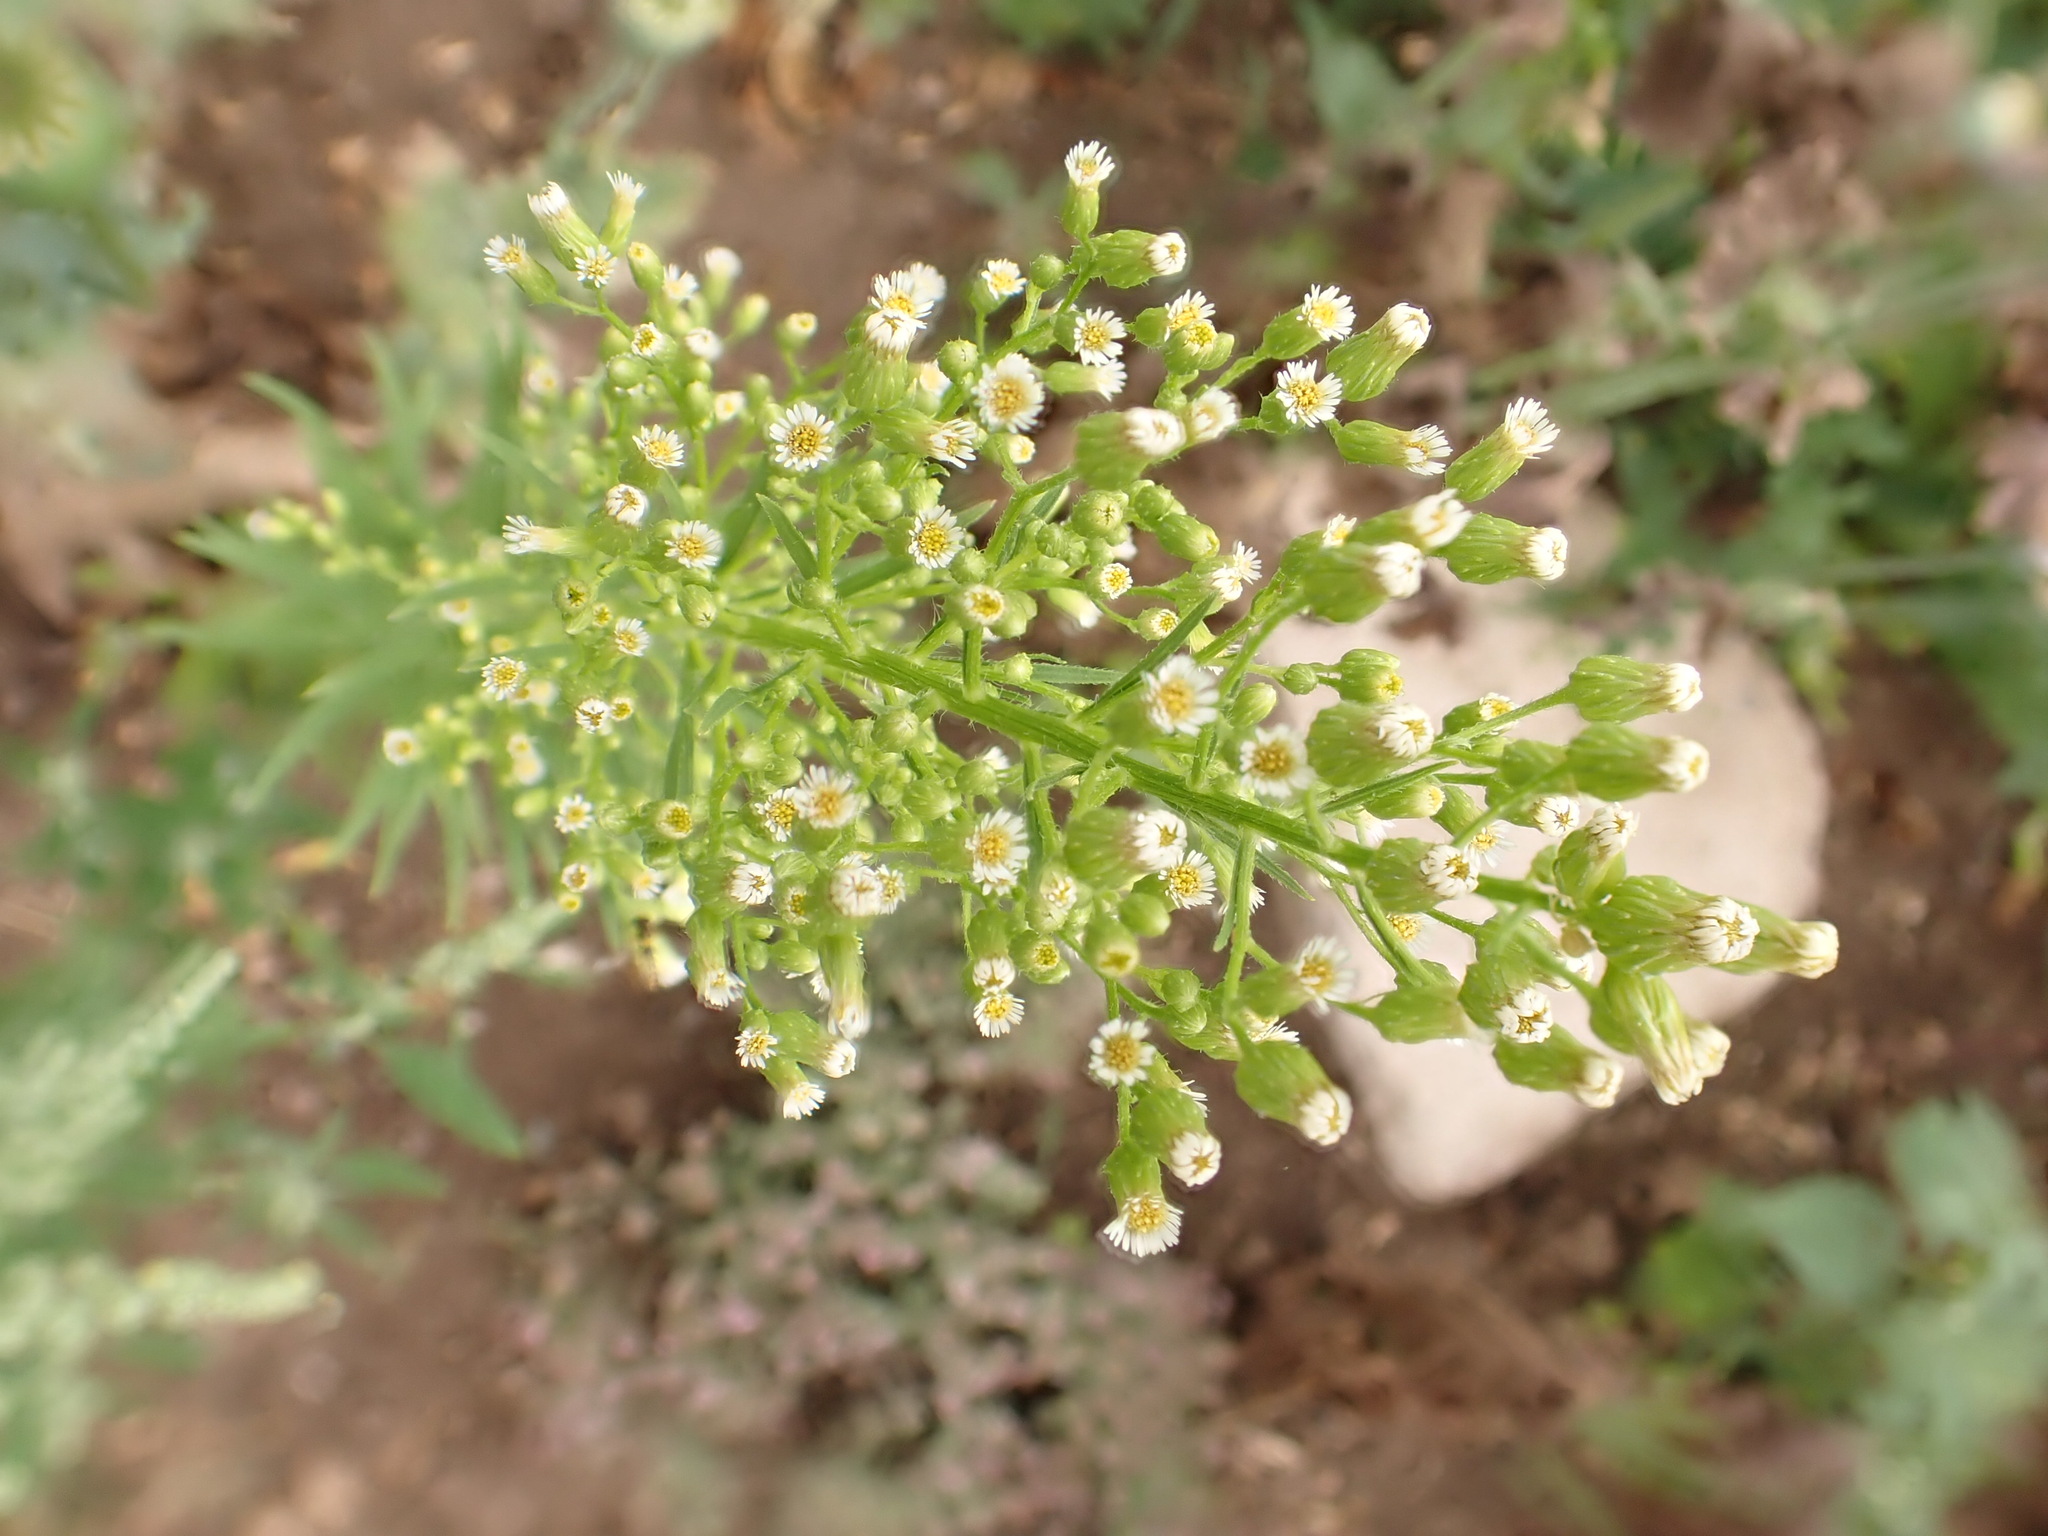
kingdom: Plantae
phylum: Tracheophyta
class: Magnoliopsida
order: Asterales
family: Asteraceae
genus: Erigeron
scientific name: Erigeron canadensis
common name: Canadian fleabane
